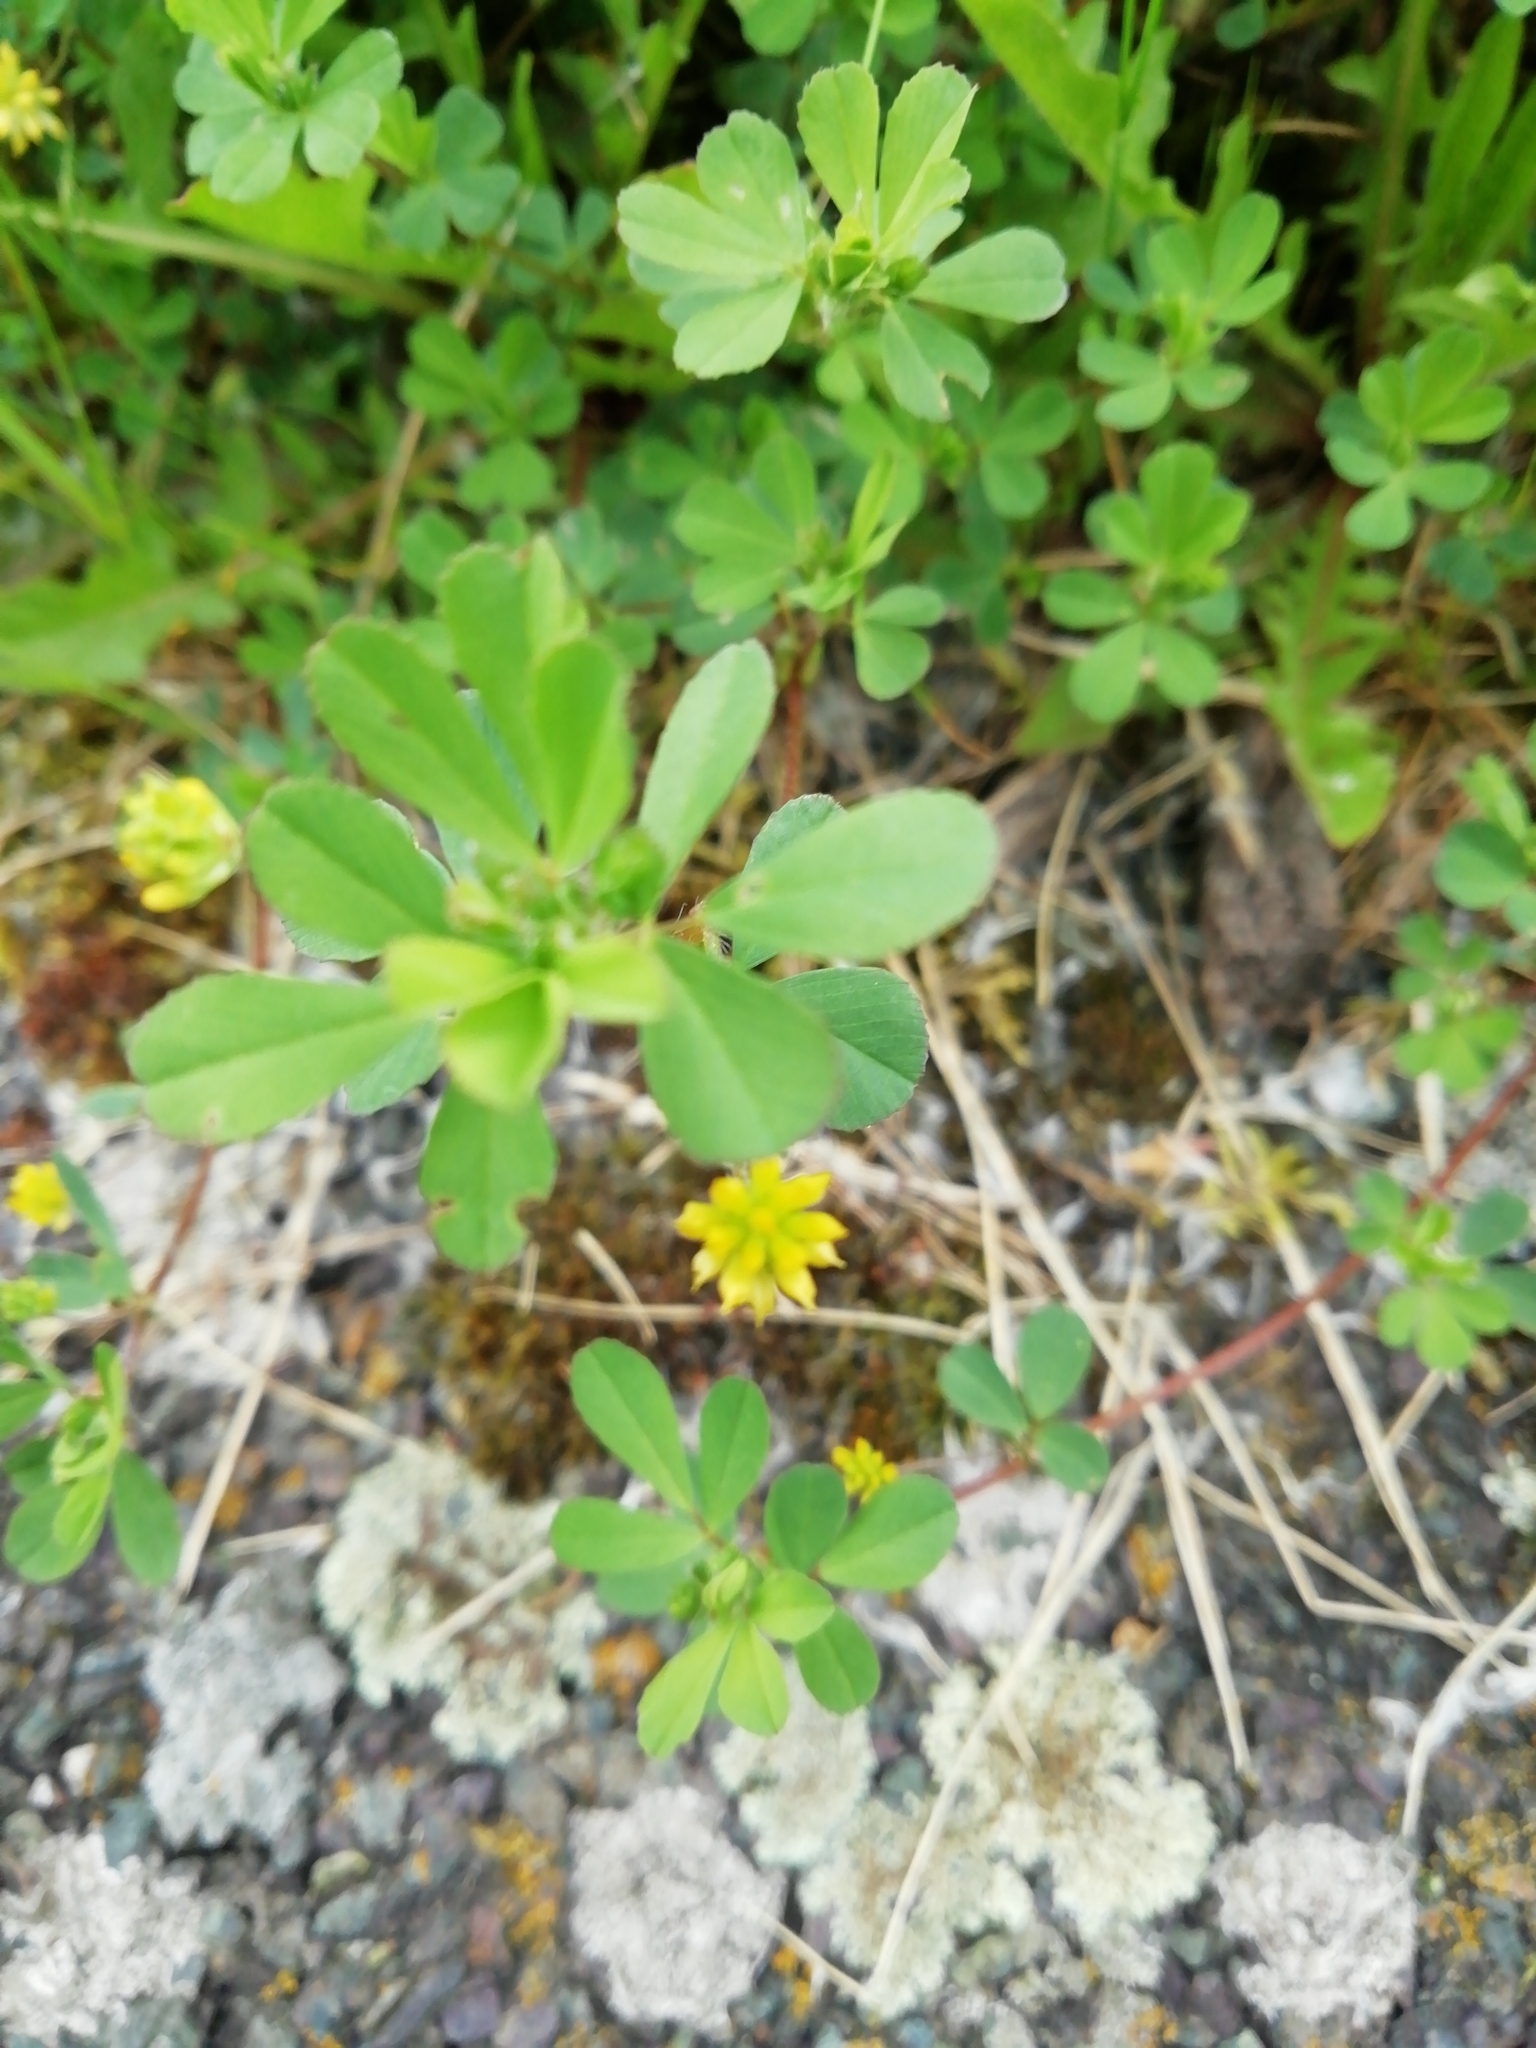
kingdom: Plantae
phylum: Tracheophyta
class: Magnoliopsida
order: Fabales
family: Fabaceae
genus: Trifolium
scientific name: Trifolium dubium
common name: Suckling clover
